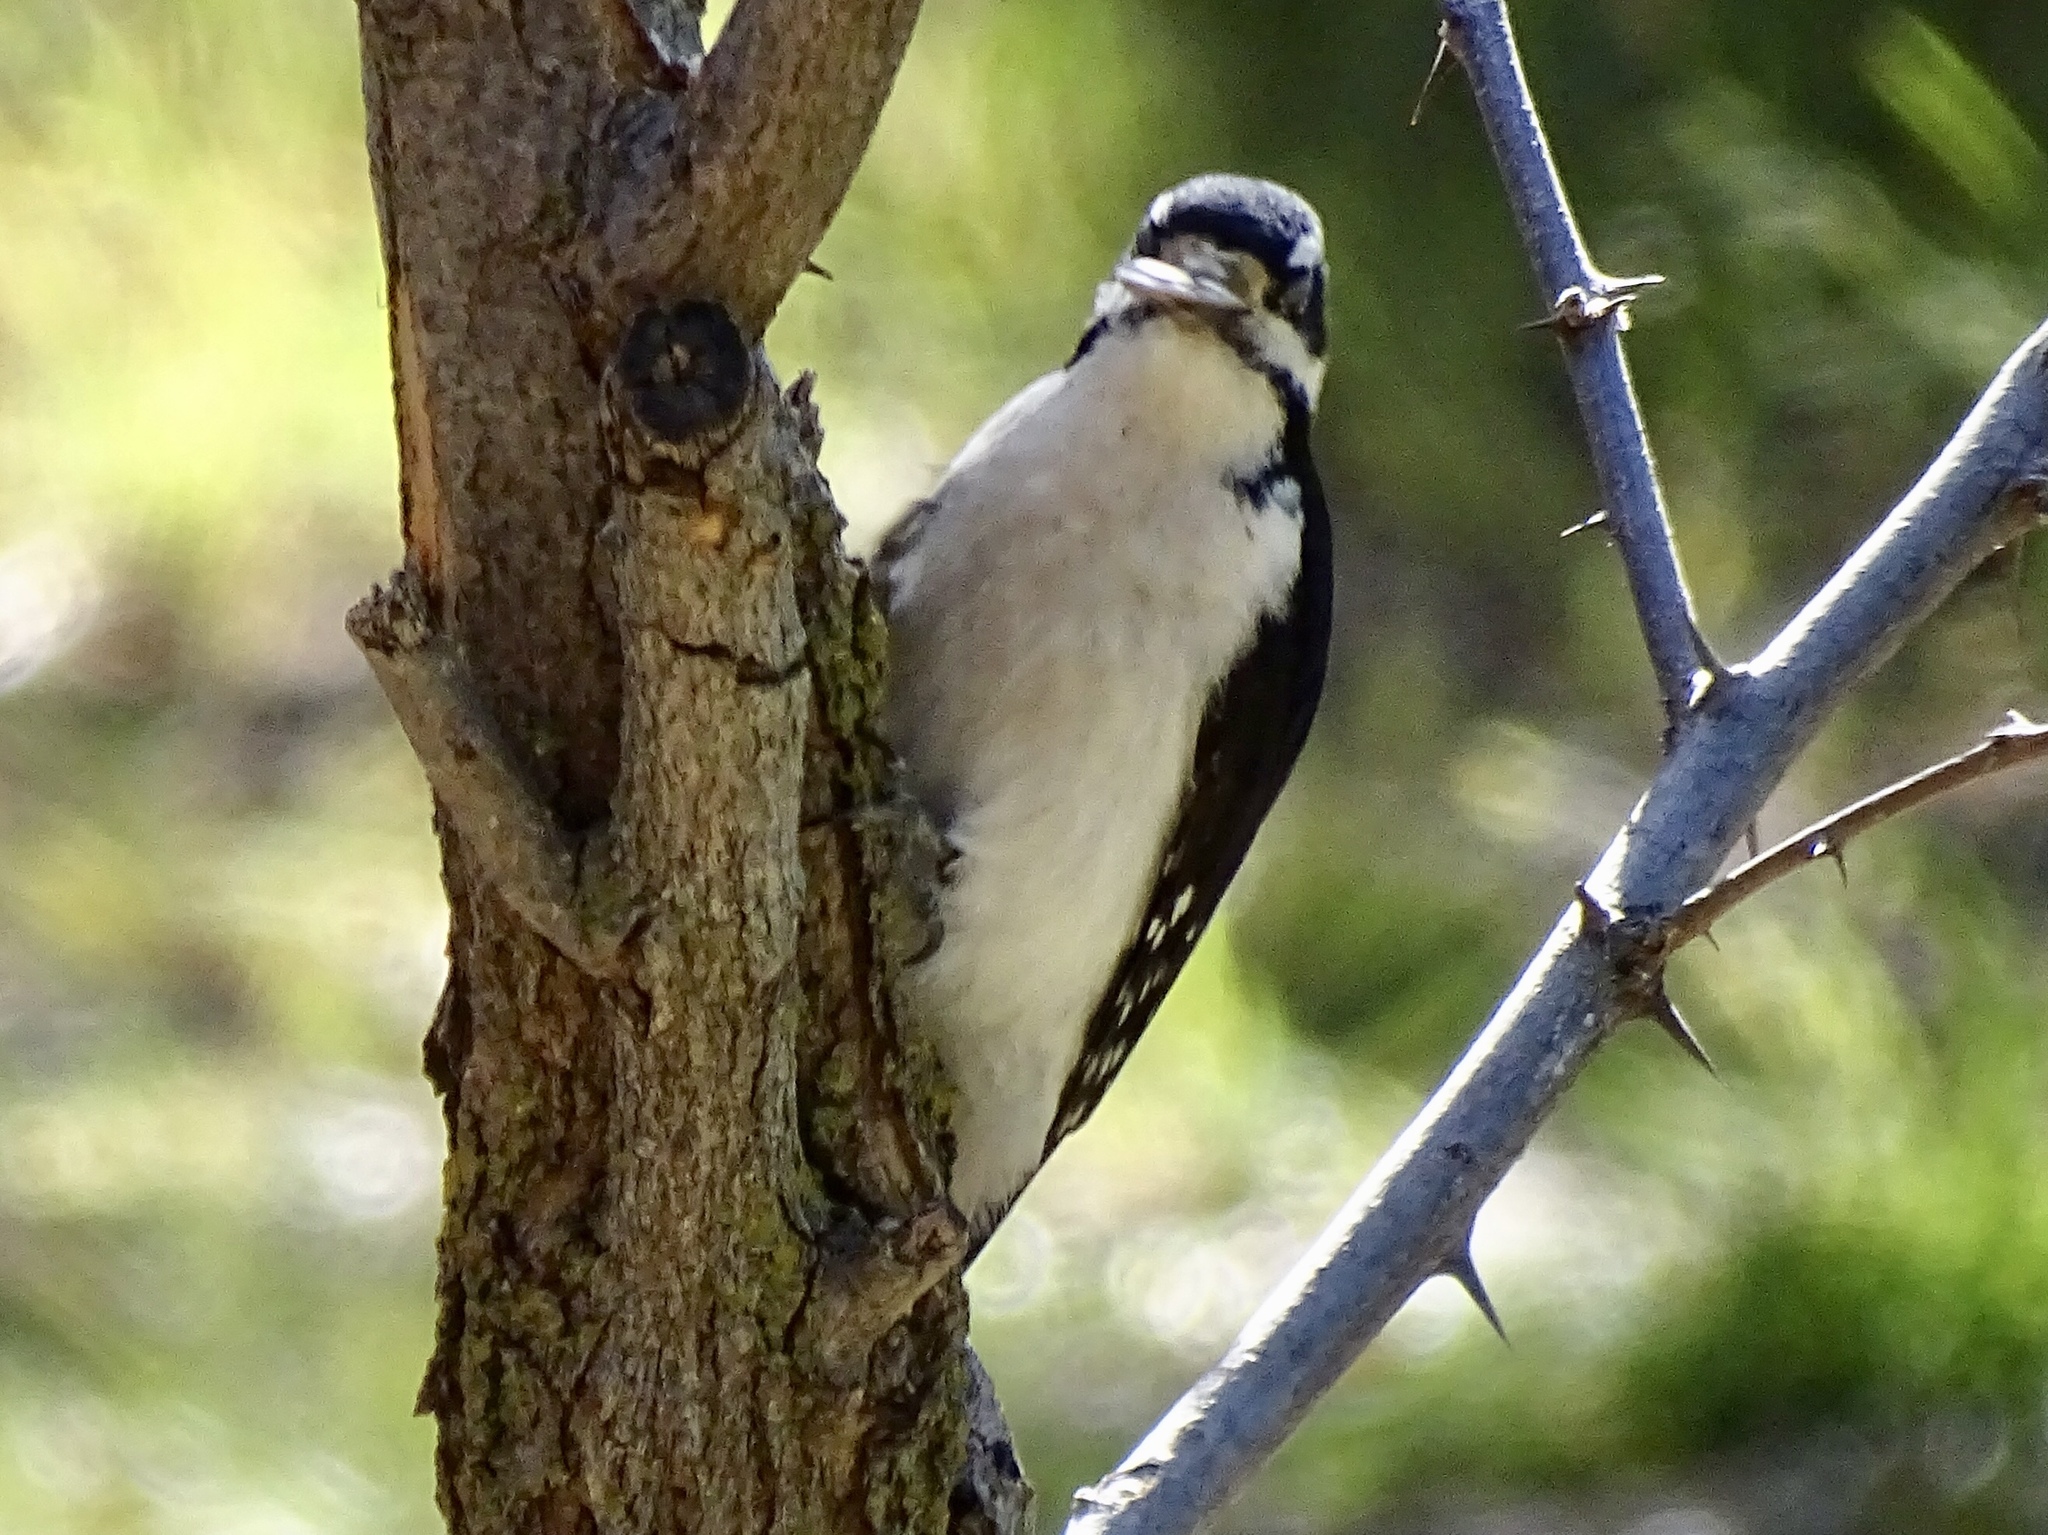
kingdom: Animalia
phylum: Chordata
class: Aves
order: Piciformes
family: Picidae
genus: Leuconotopicus
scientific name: Leuconotopicus villosus
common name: Hairy woodpecker
